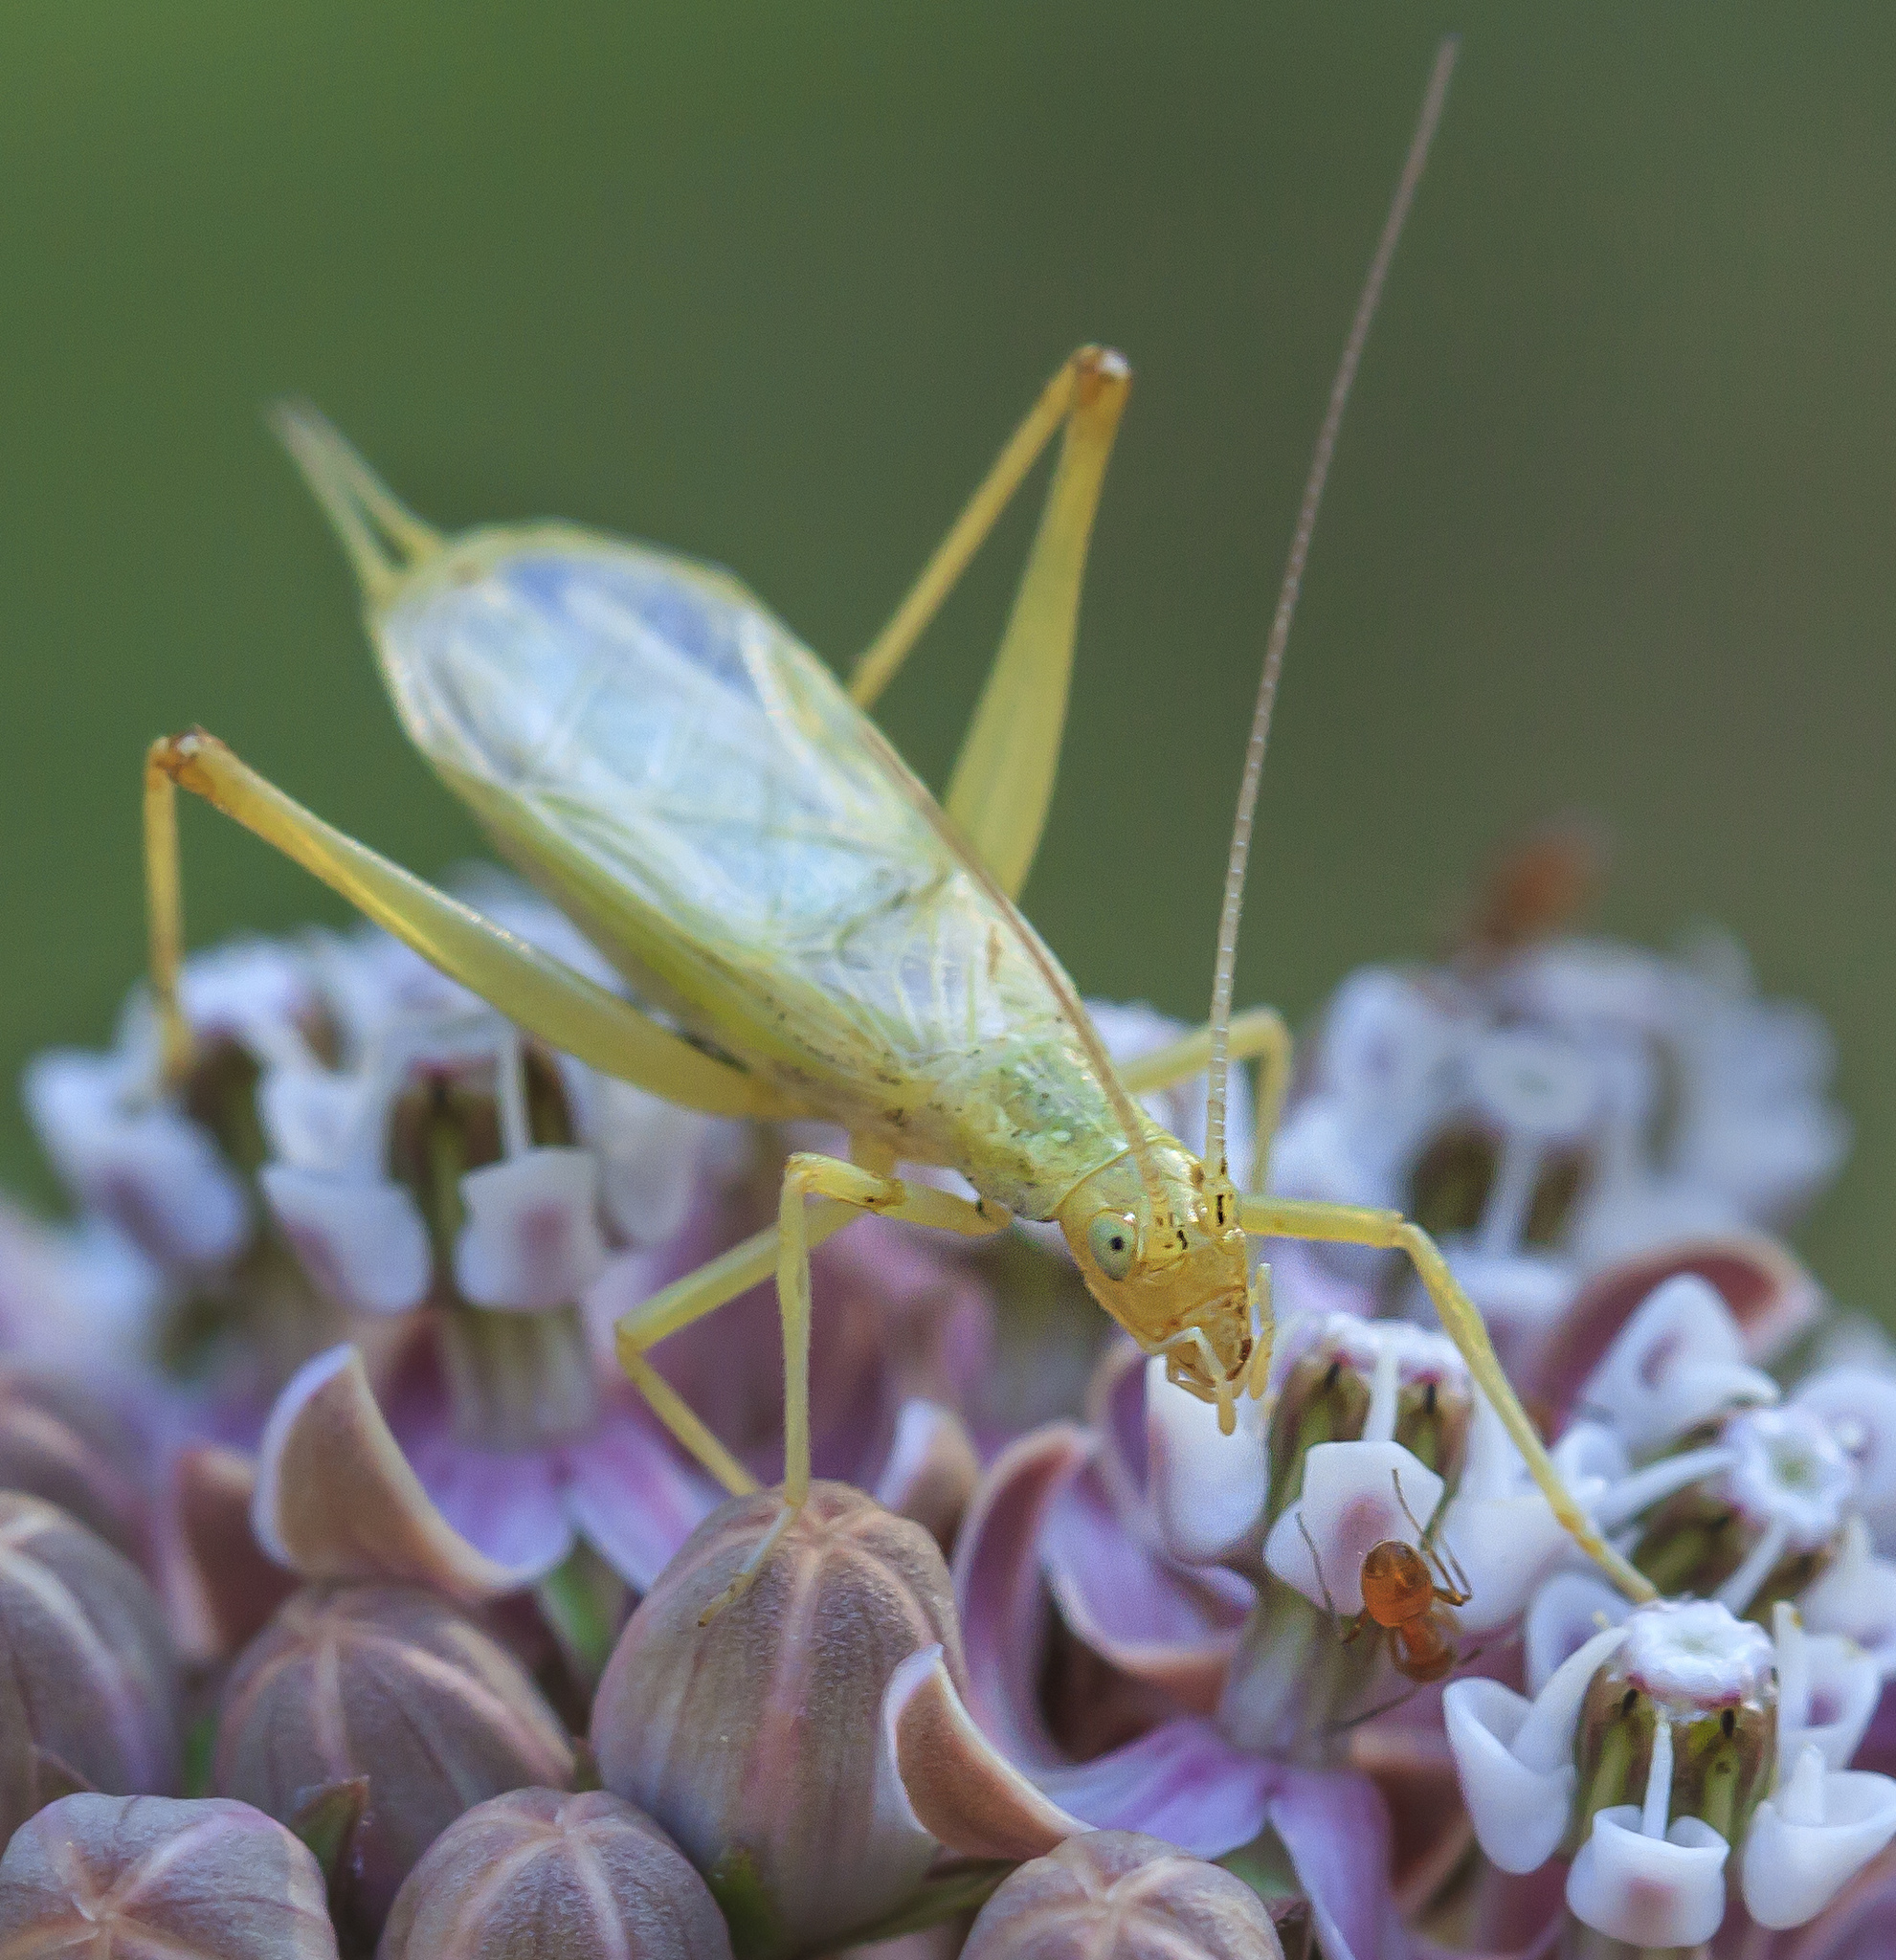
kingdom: Animalia
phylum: Arthropoda
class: Insecta
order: Orthoptera
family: Gryllidae
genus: Oecanthus
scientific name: Oecanthus quadripunctatus
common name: Four-spotted tree cricket
